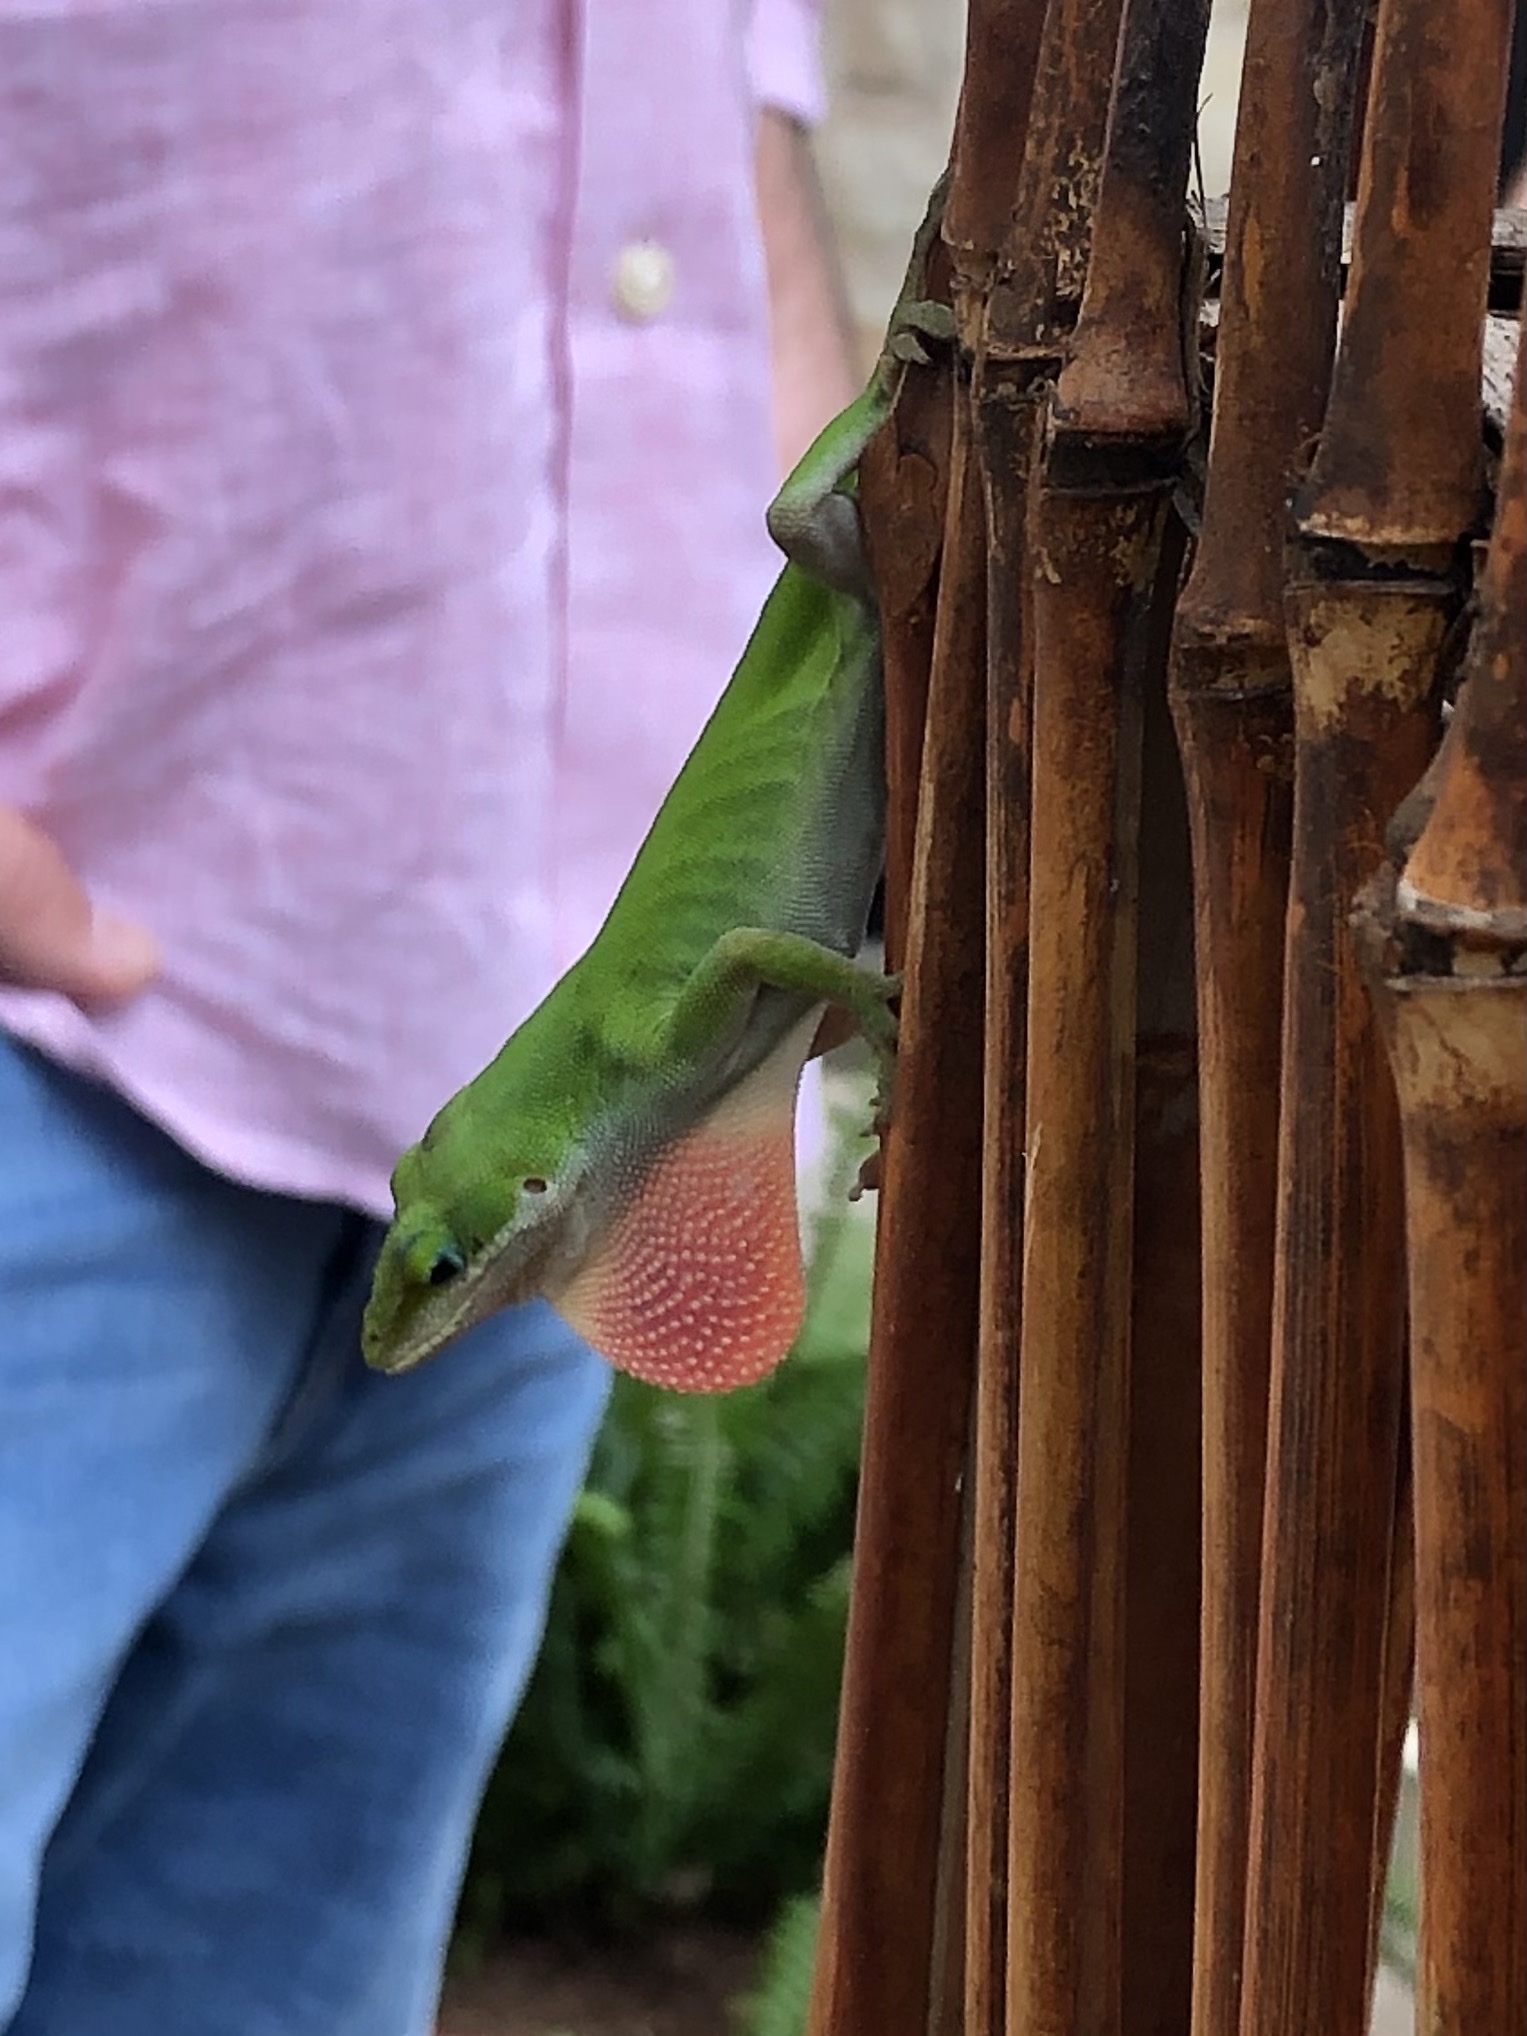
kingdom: Animalia
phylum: Chordata
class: Squamata
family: Dactyloidae
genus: Anolis
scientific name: Anolis carolinensis
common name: Green anole
